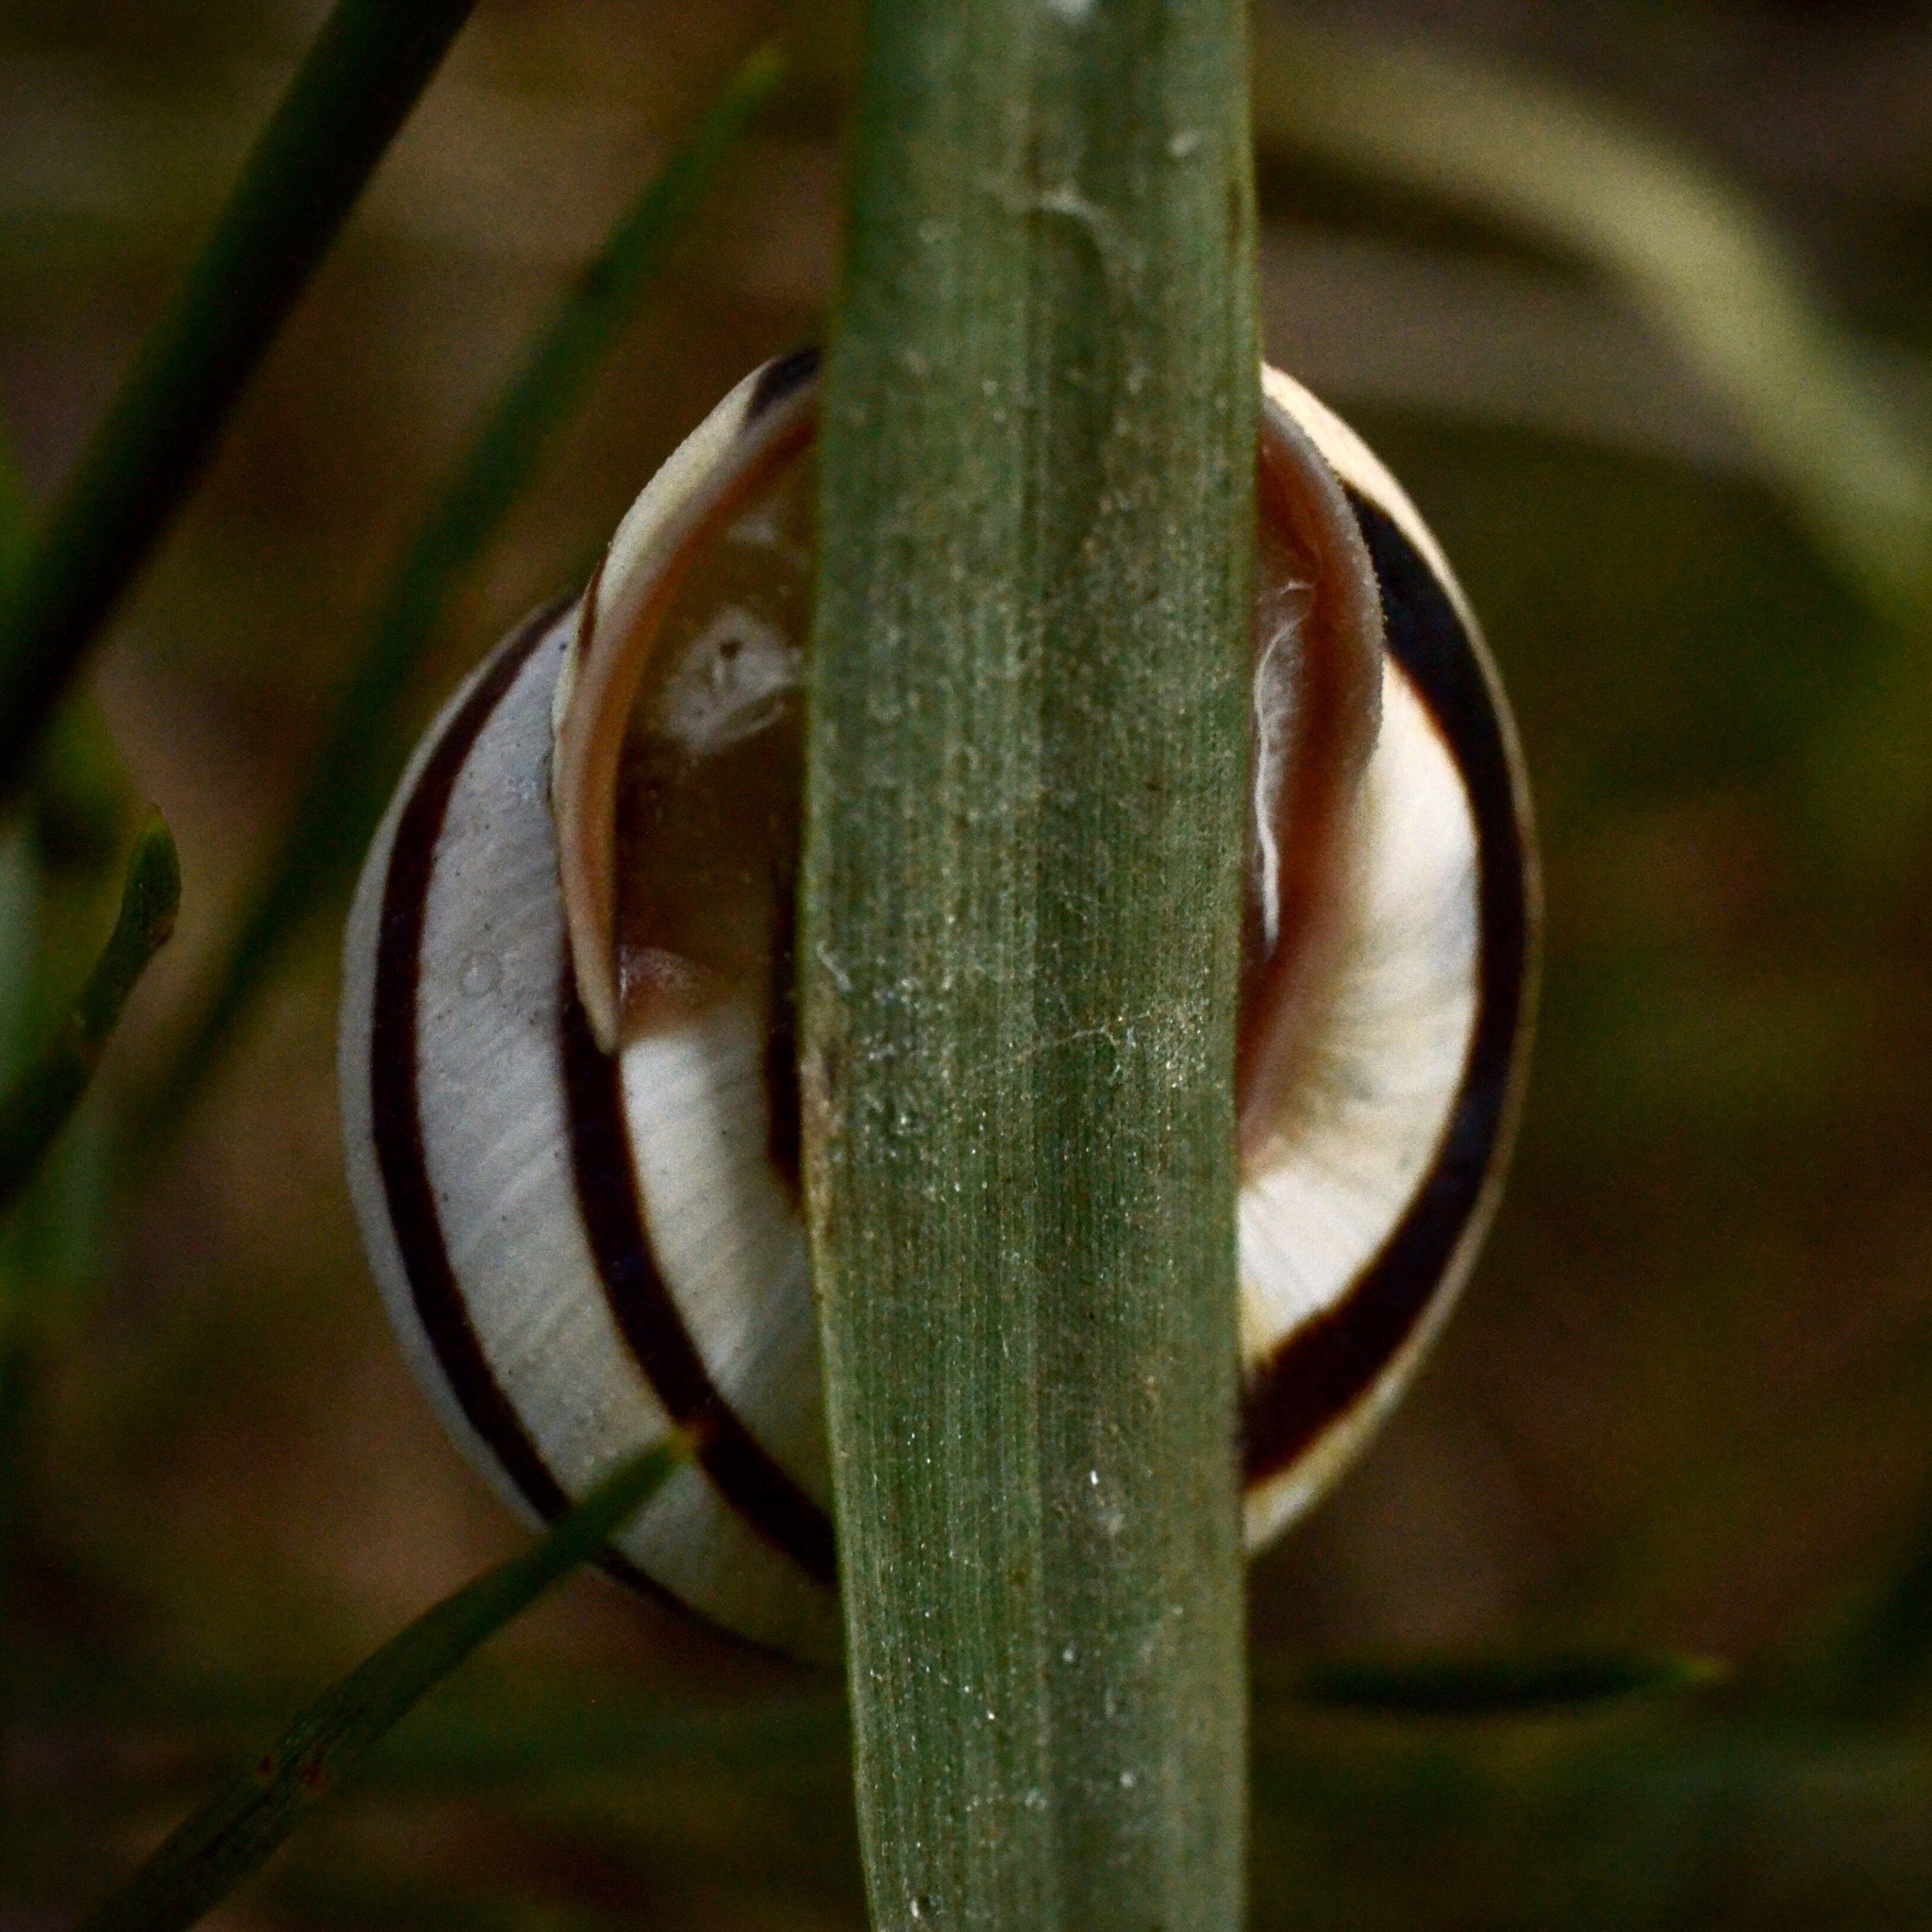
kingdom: Animalia
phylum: Mollusca
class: Gastropoda
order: Stylommatophora
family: Helicidae
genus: Caucasotachea
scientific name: Caucasotachea vindobonensis
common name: European helicid land snail
